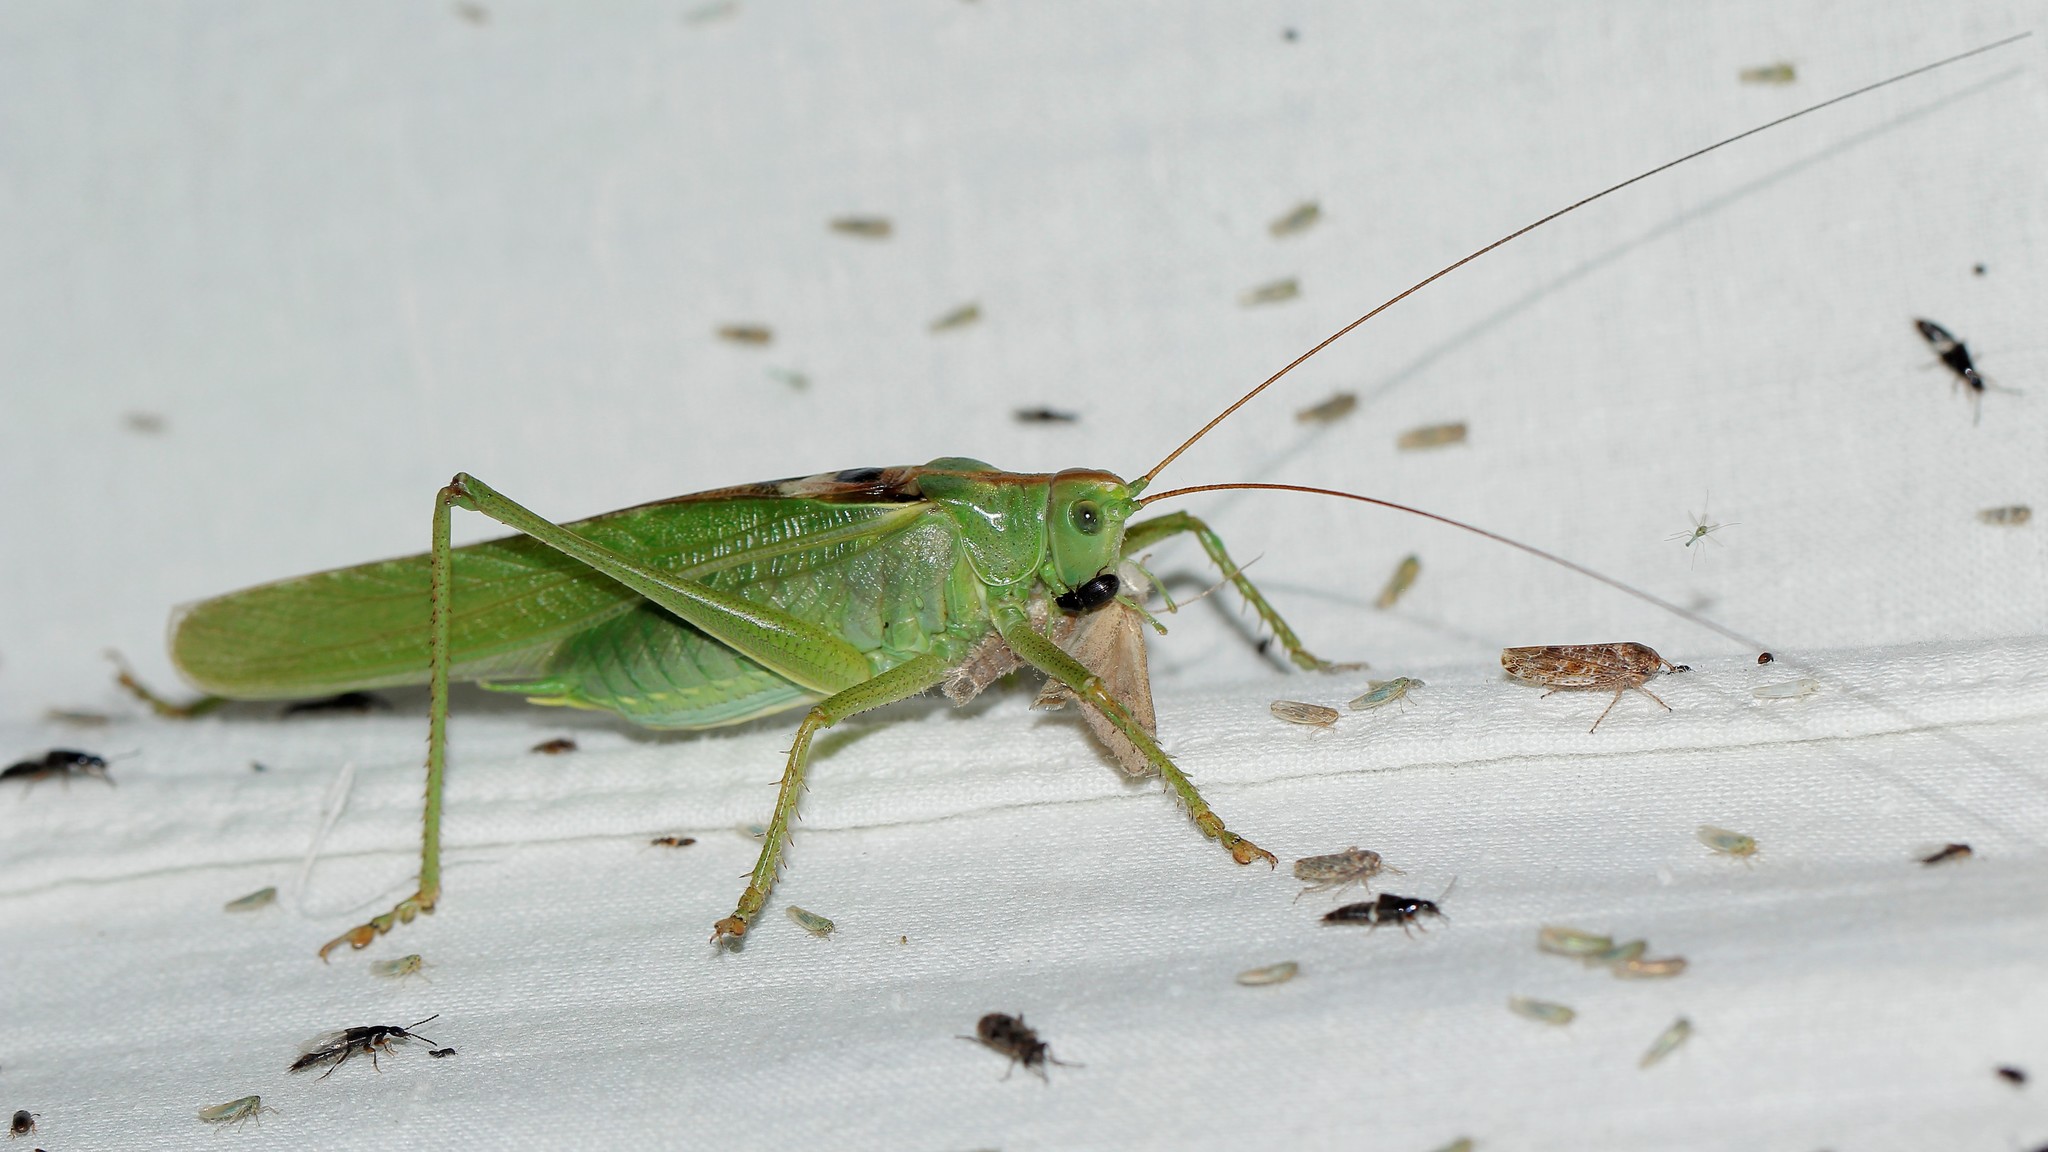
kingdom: Animalia
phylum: Arthropoda
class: Insecta
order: Orthoptera
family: Tettigoniidae
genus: Tettigonia
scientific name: Tettigonia viridissima
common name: Great green bush-cricket
